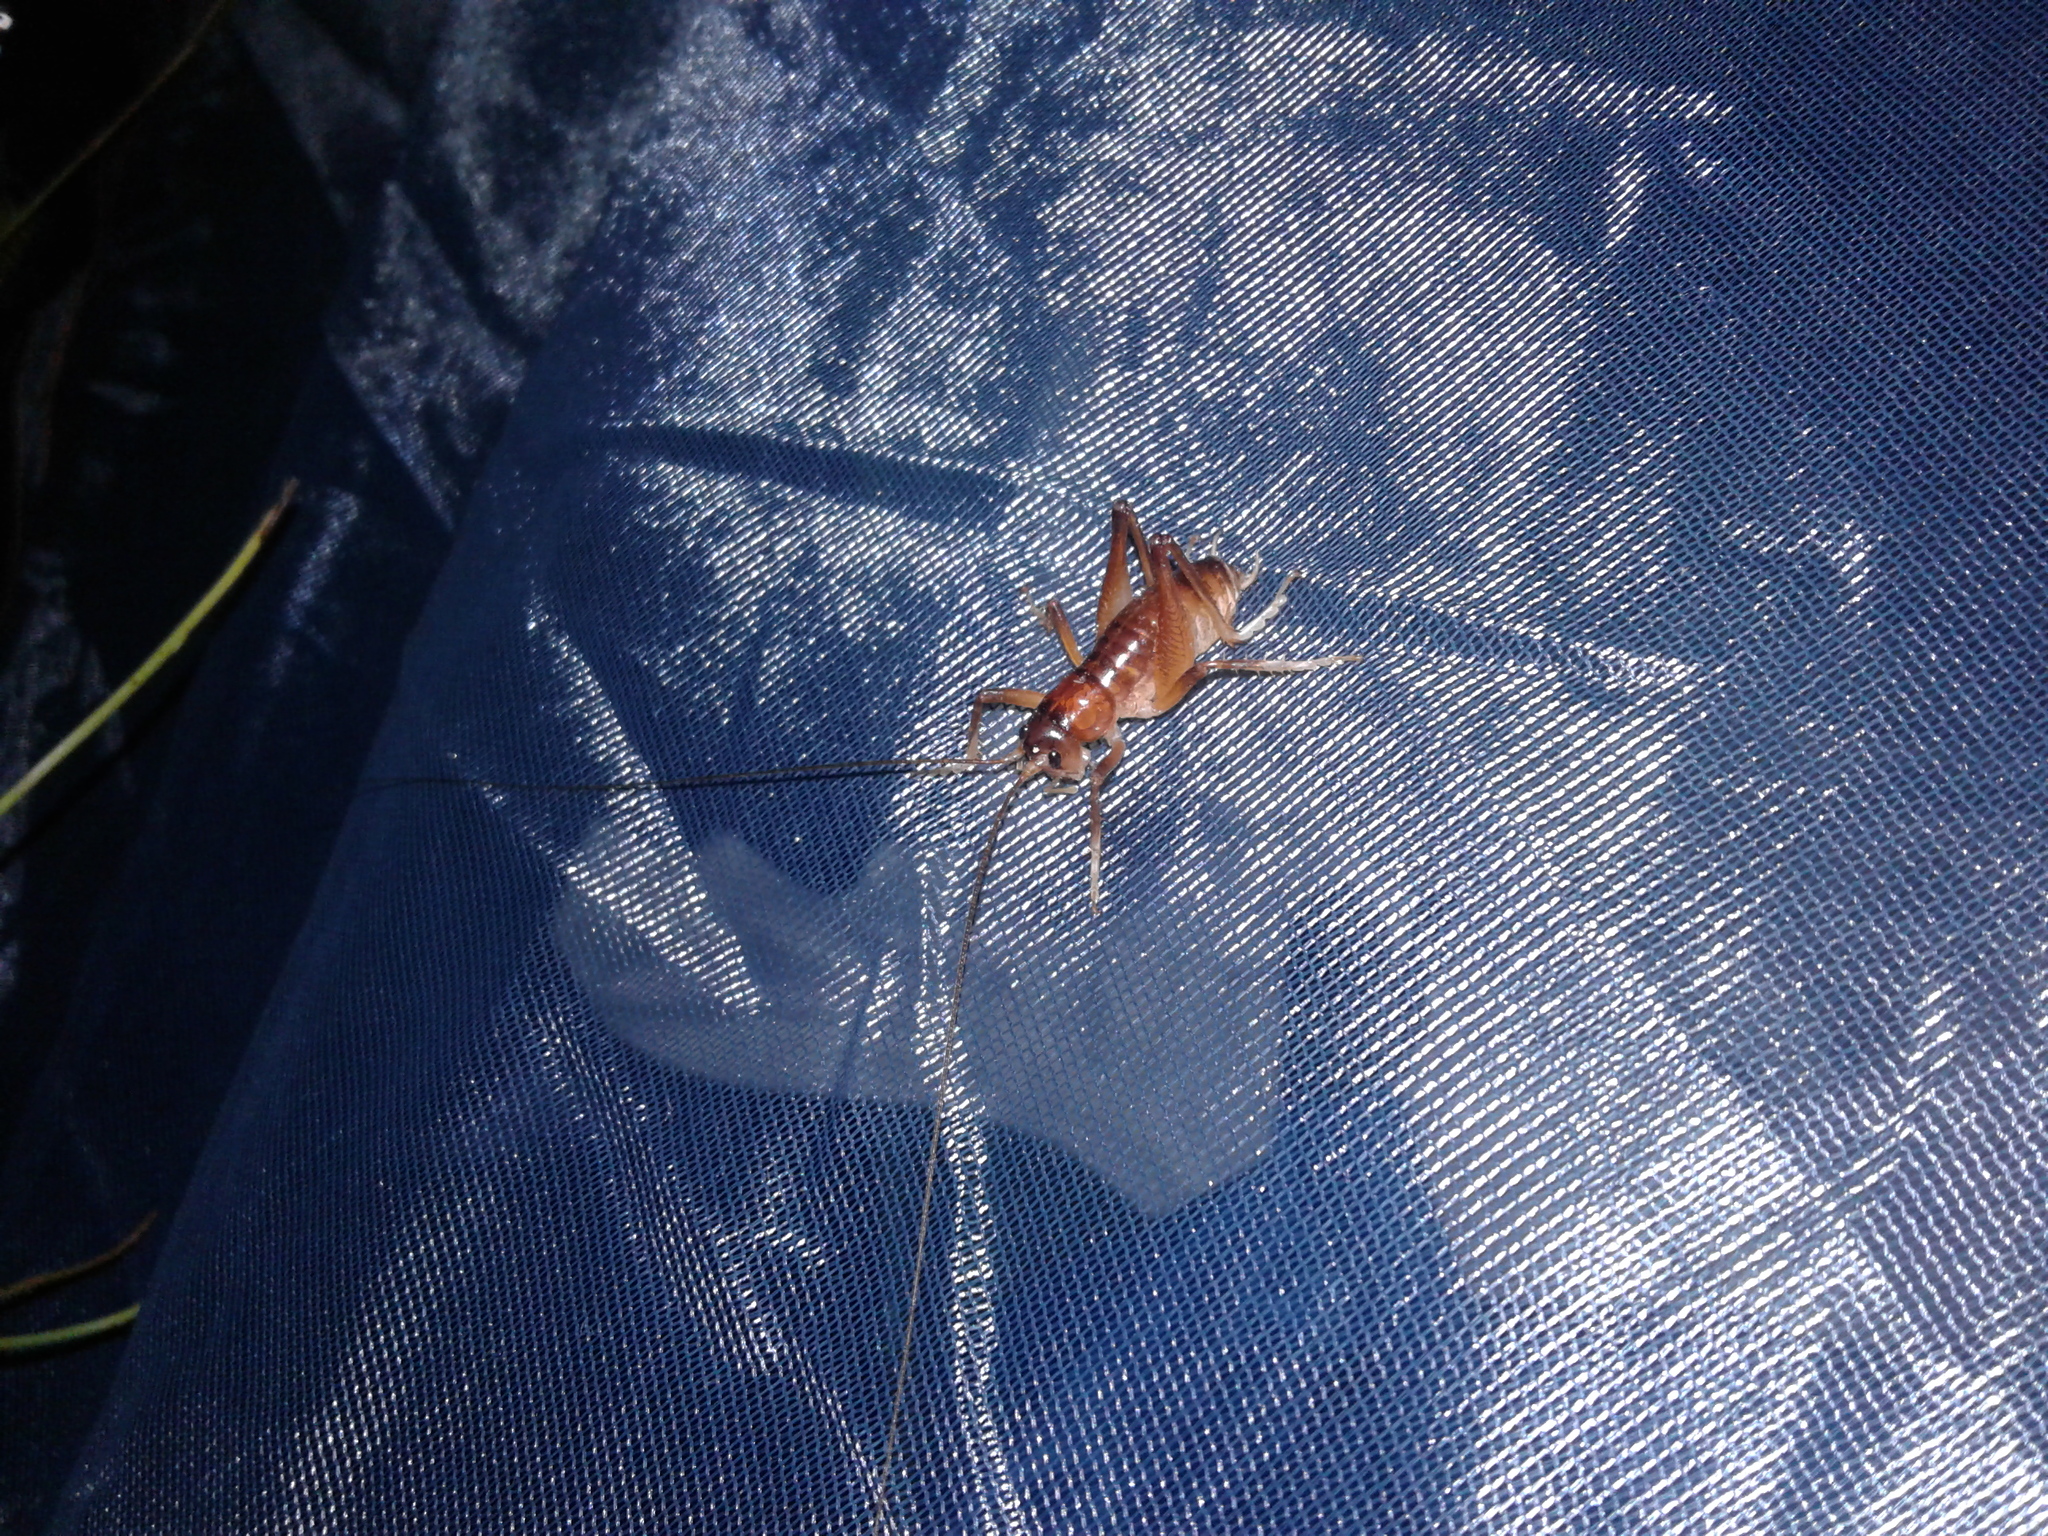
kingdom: Animalia
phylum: Arthropoda
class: Insecta
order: Orthoptera
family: Anostostomatidae
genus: Hemiandrus
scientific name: Hemiandrus
